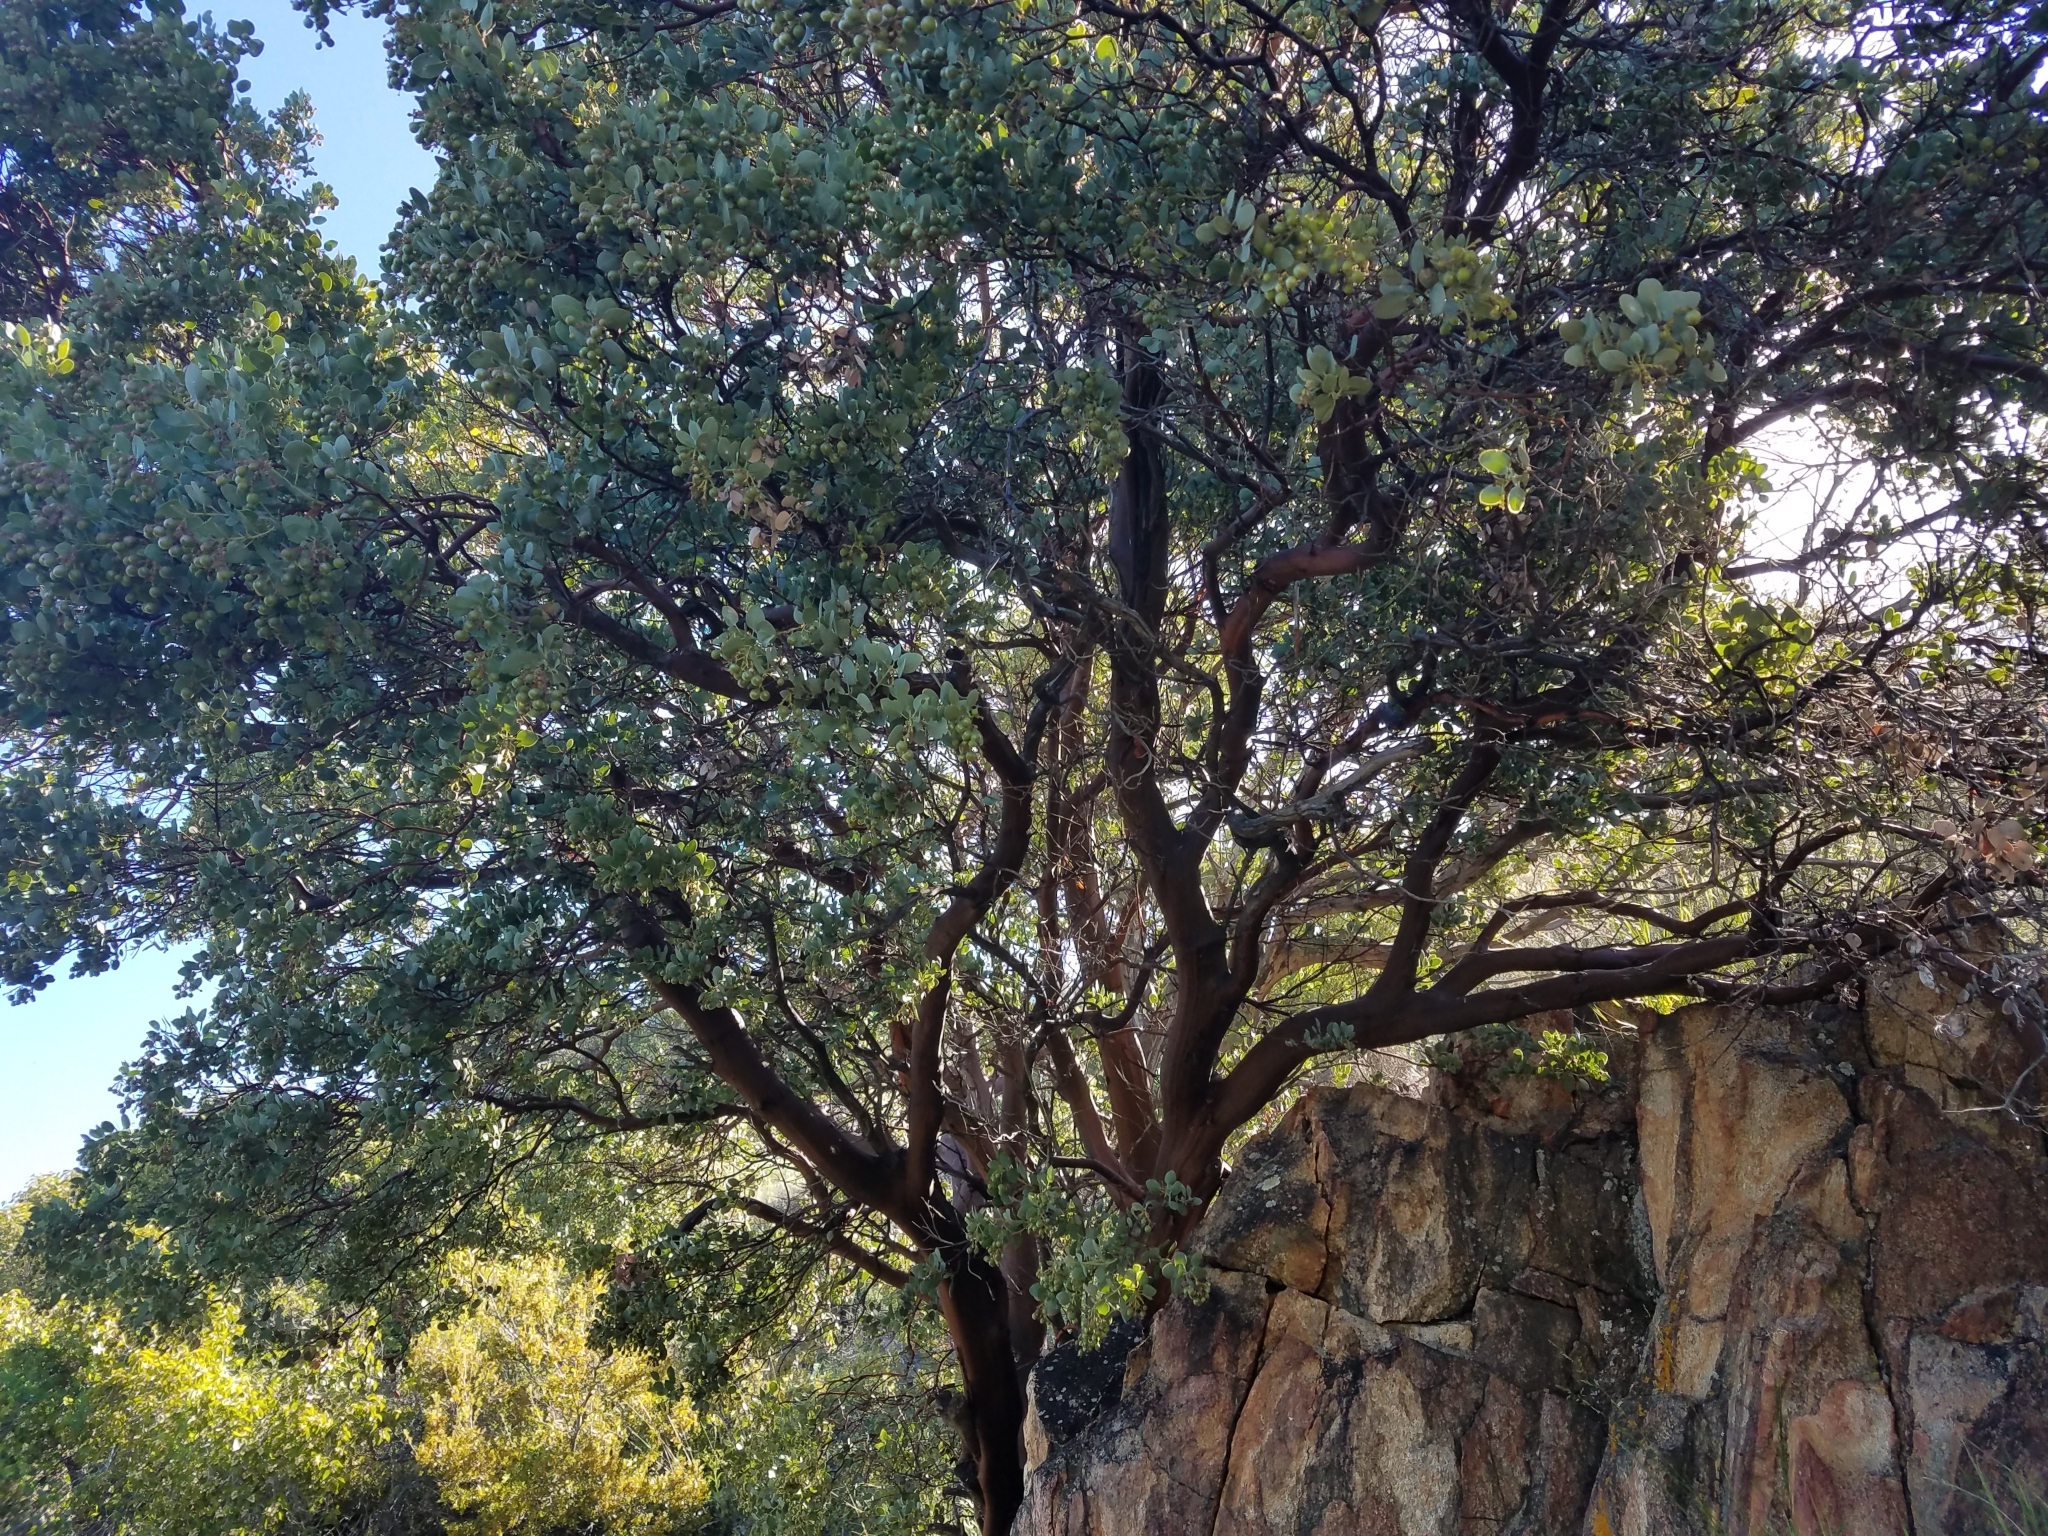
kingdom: Plantae
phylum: Tracheophyta
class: Magnoliopsida
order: Ericales
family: Ericaceae
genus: Arctostaphylos
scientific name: Arctostaphylos glauca
